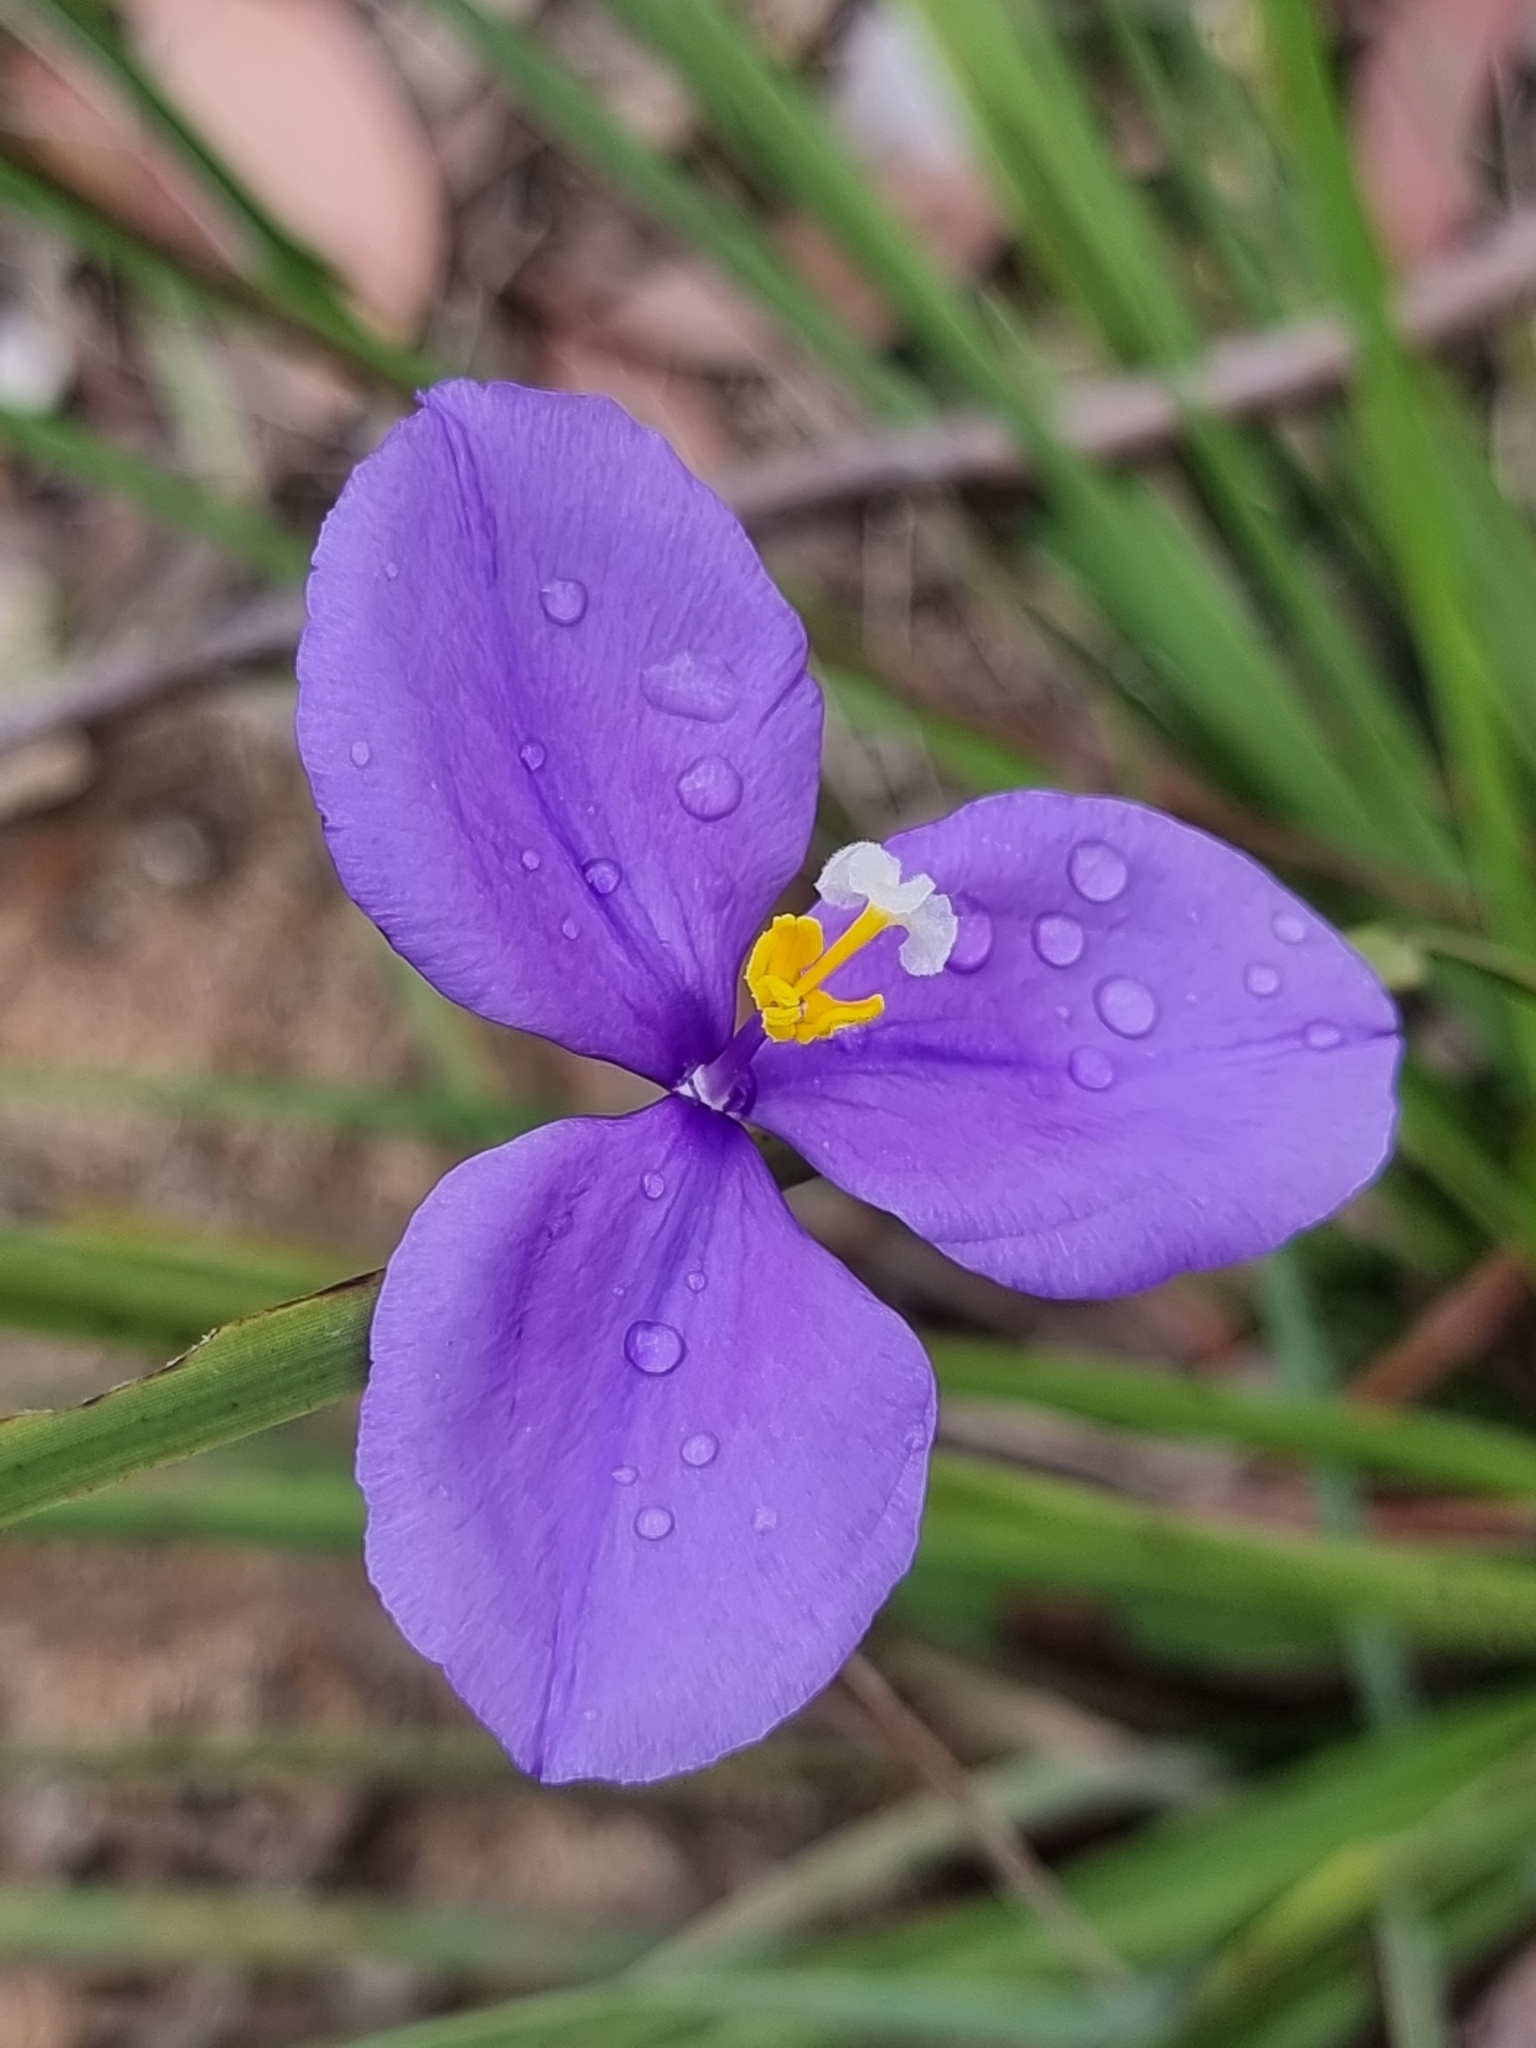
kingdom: Plantae
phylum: Tracheophyta
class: Liliopsida
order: Asparagales
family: Iridaceae
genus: Patersonia
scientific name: Patersonia sericea
